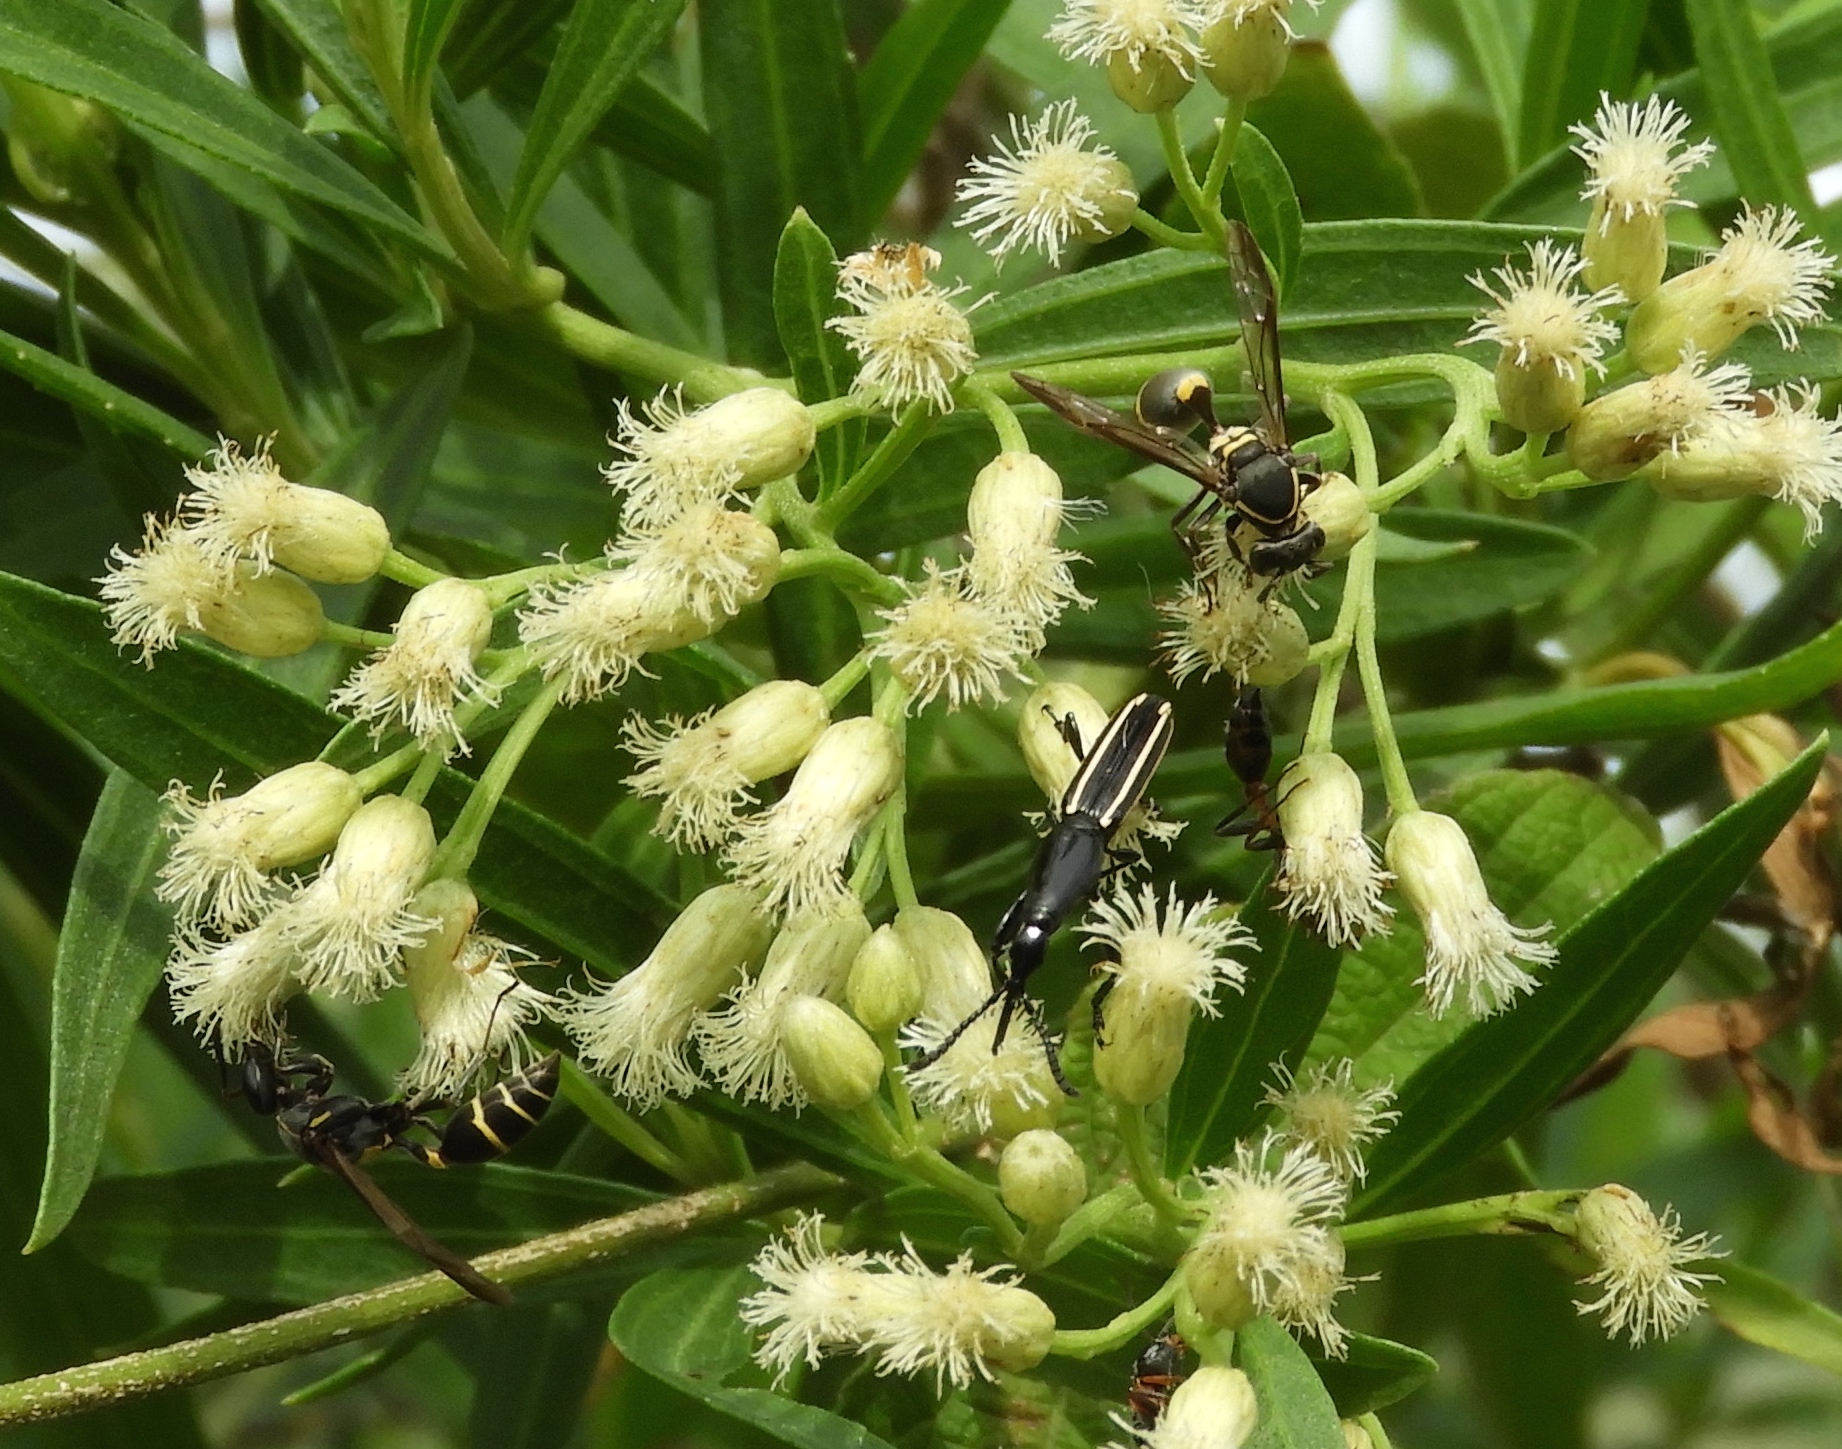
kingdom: Animalia
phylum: Arthropoda
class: Insecta
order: Coleoptera
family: Brentidae
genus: Brentus
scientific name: Brentus anchorago
